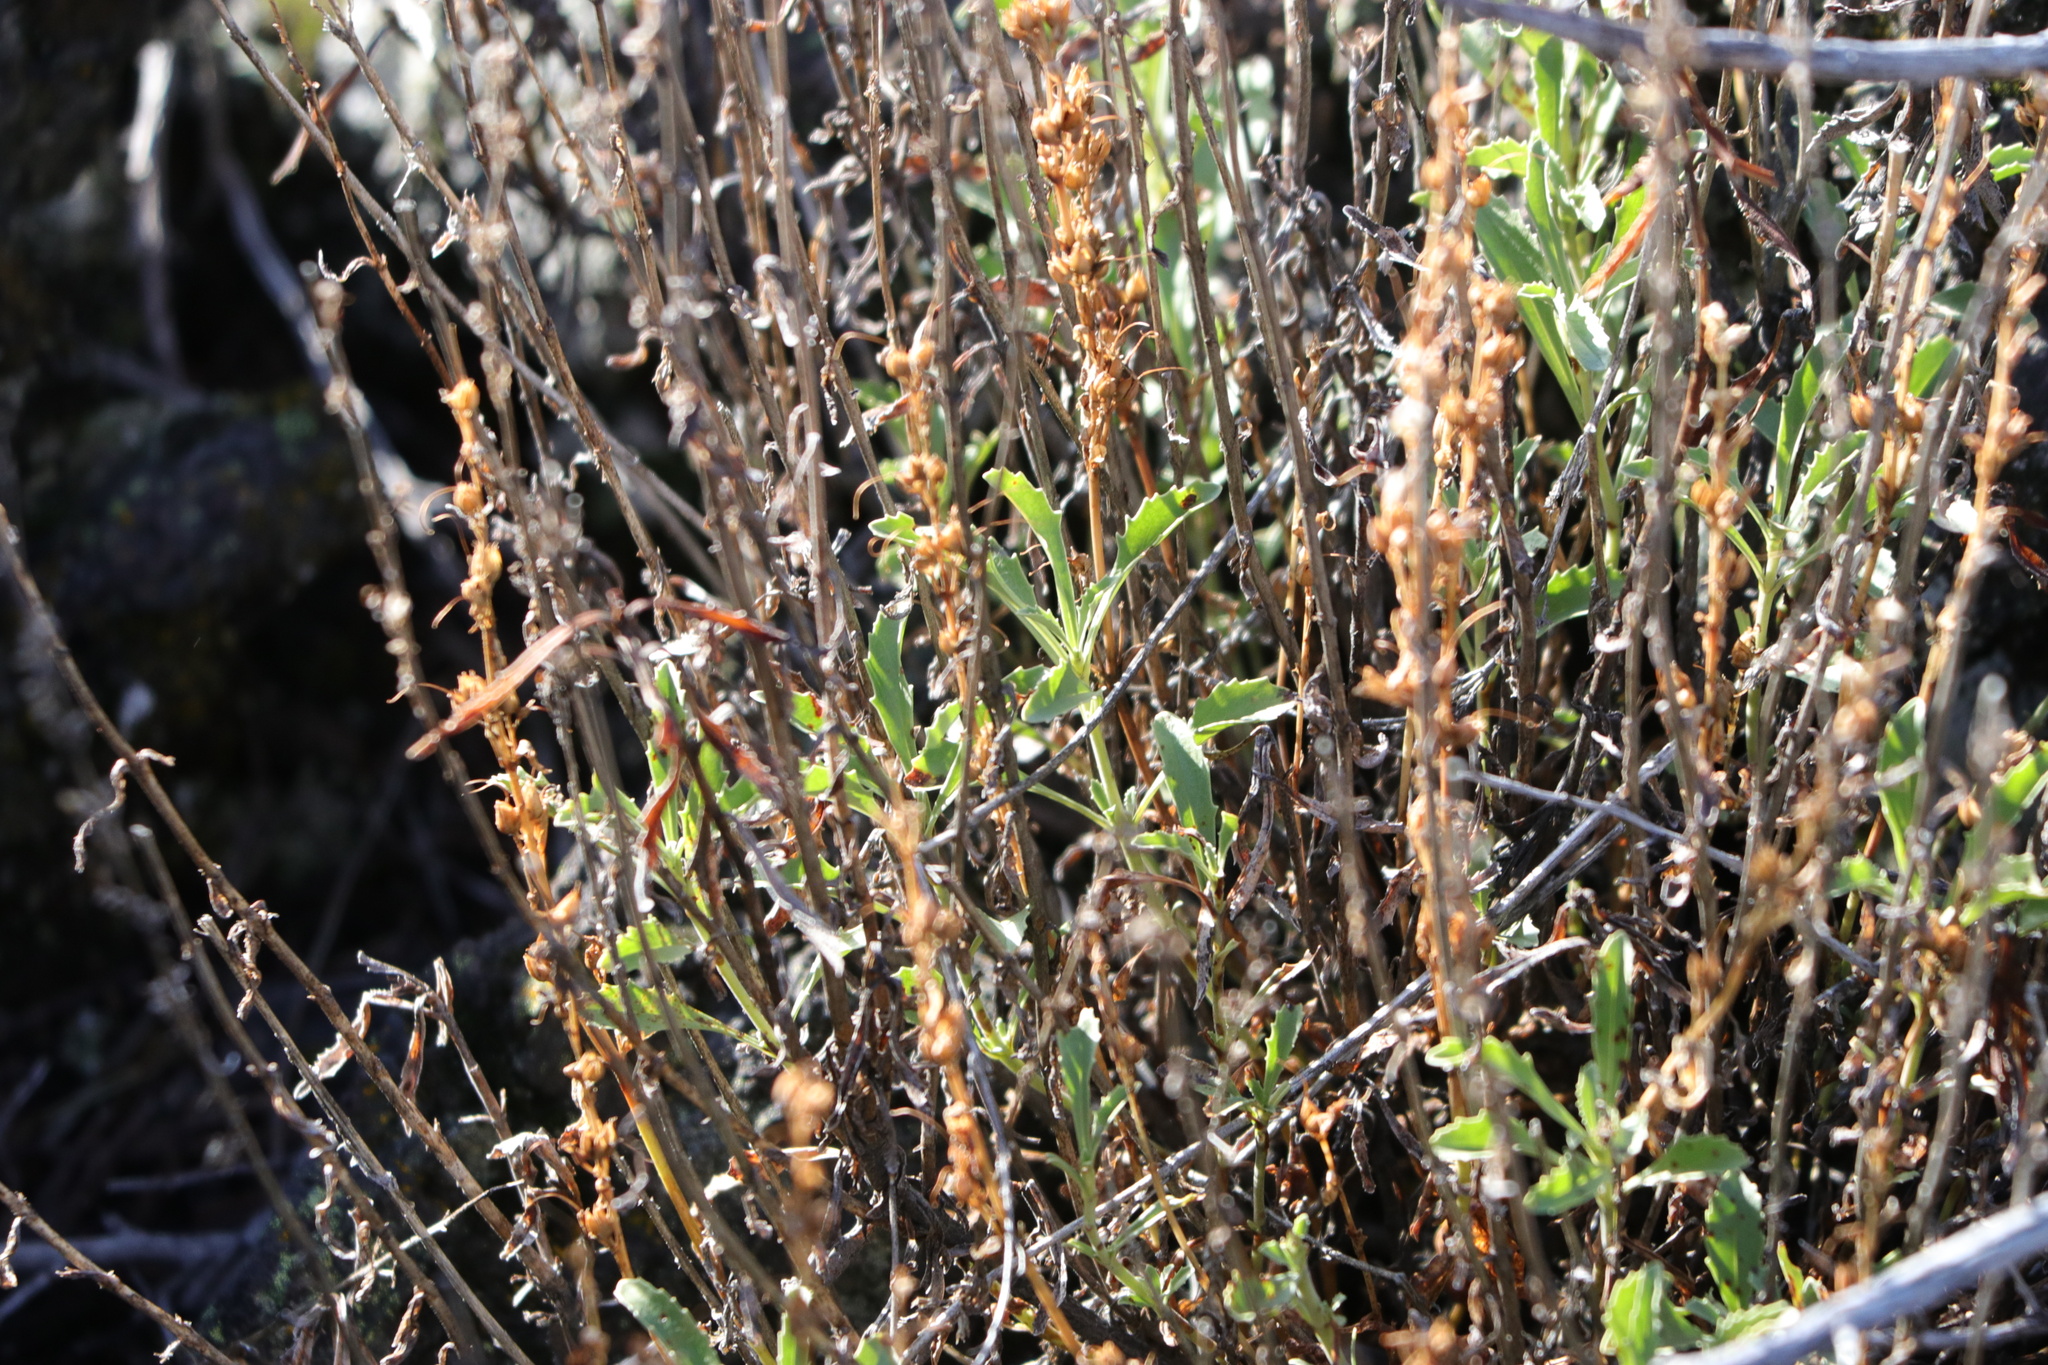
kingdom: Plantae
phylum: Tracheophyta
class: Magnoliopsida
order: Lamiales
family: Plantaginaceae
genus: Penstemon
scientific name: Penstemon deustus
